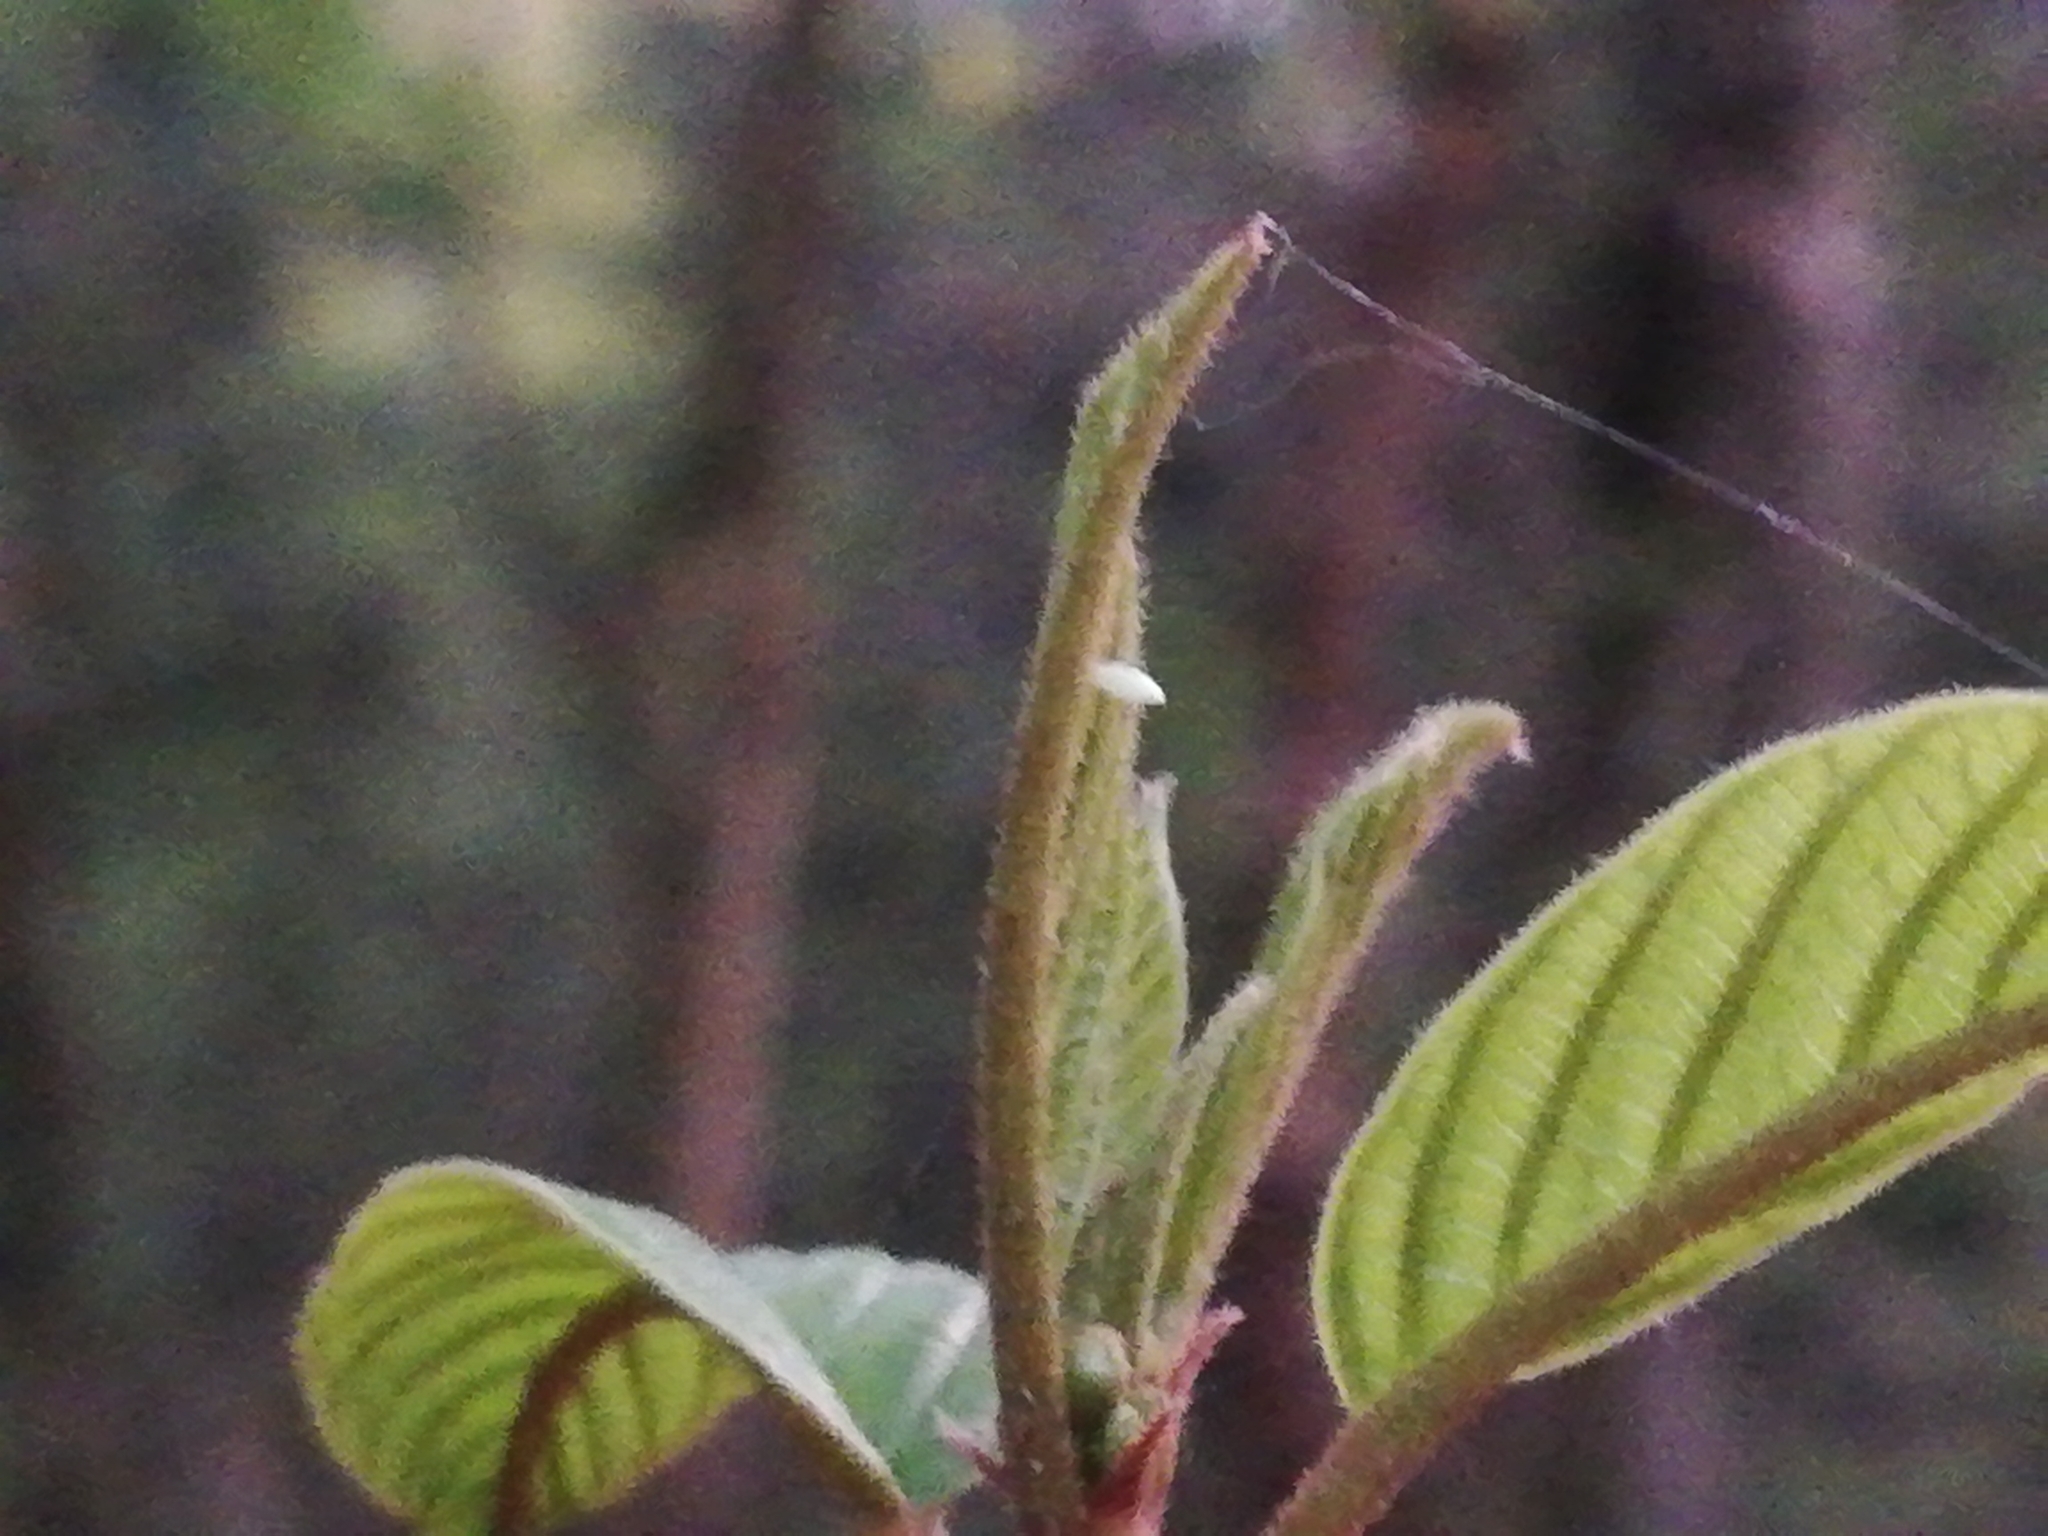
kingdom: Animalia
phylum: Arthropoda
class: Insecta
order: Lepidoptera
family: Pieridae
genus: Gonepteryx
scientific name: Gonepteryx rhamni
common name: Brimstone
